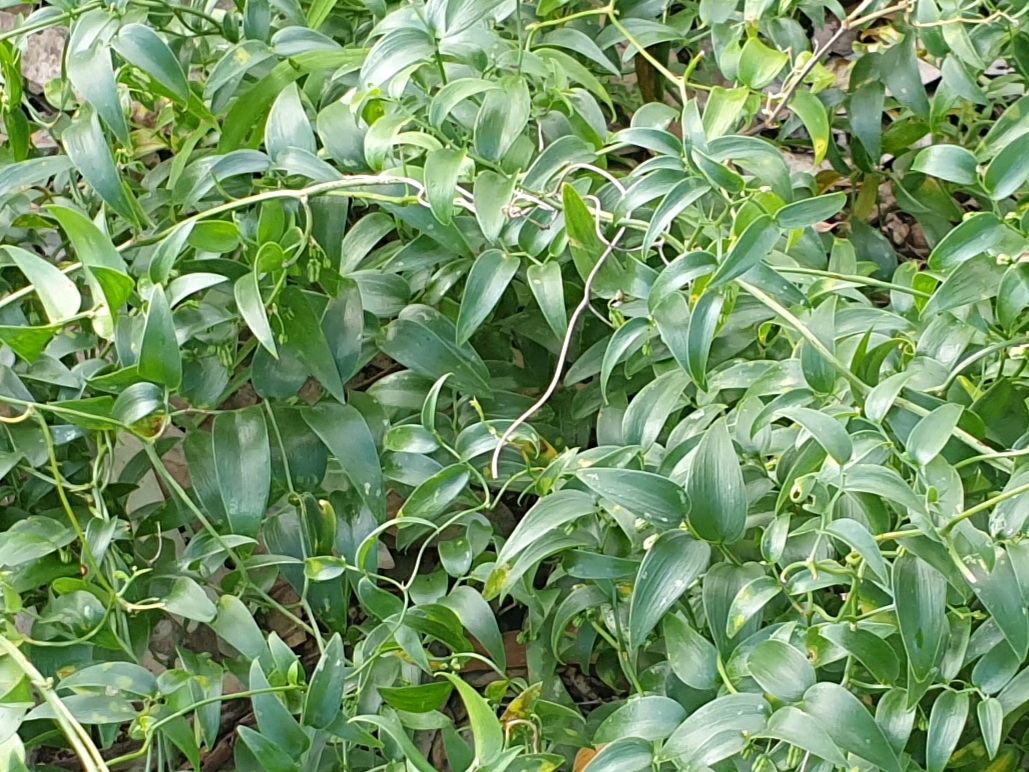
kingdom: Plantae
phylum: Tracheophyta
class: Liliopsida
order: Asparagales
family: Asparagaceae
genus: Asparagus
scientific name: Asparagus asparagoides
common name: African asparagus fern
